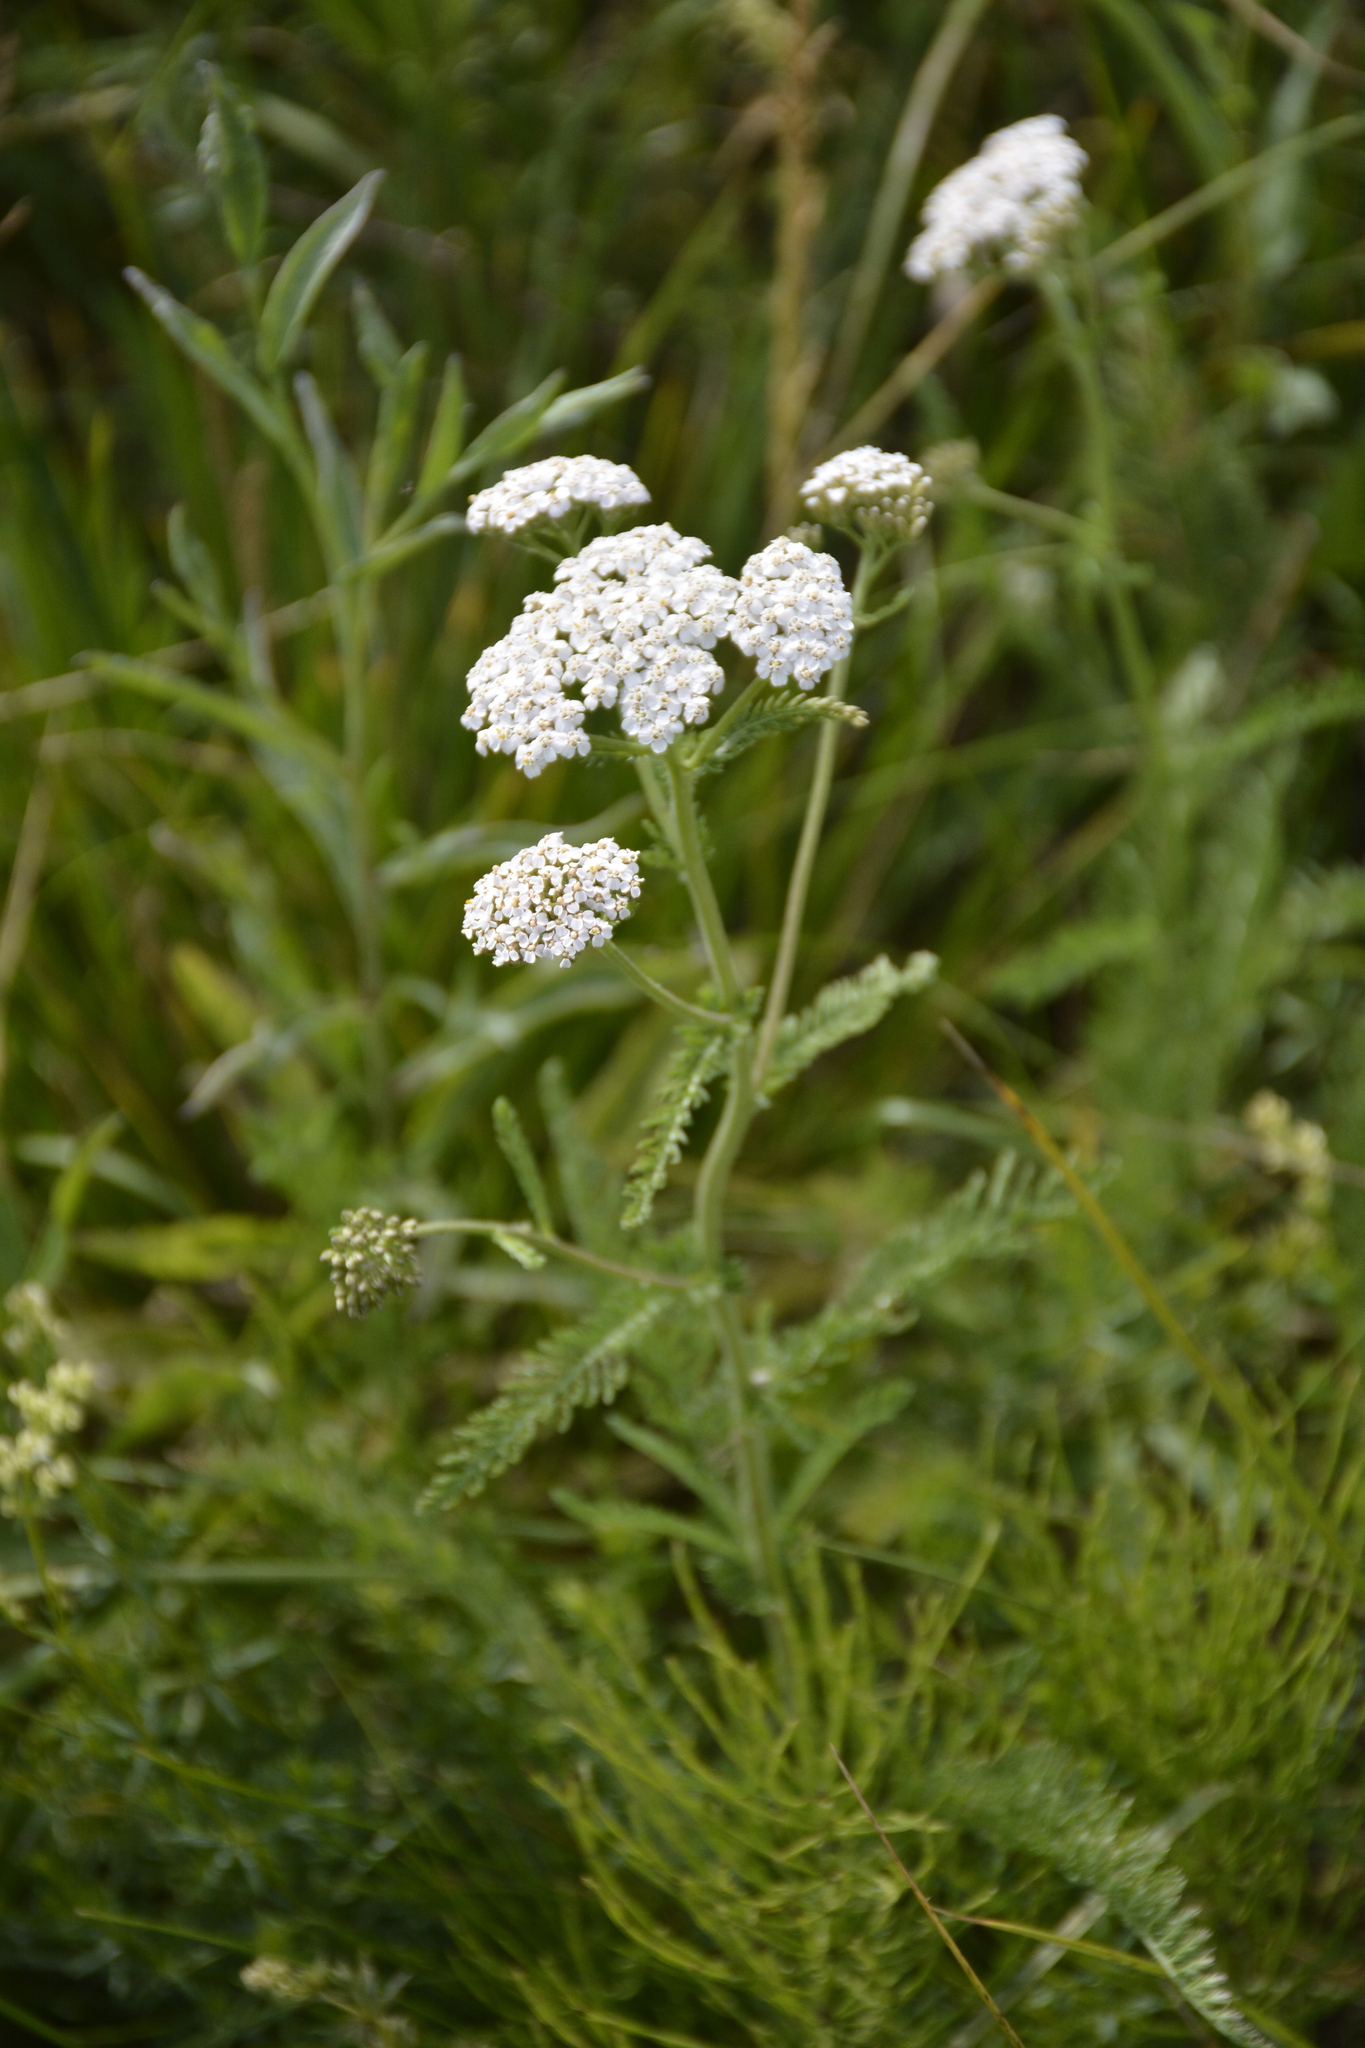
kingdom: Plantae
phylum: Tracheophyta
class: Magnoliopsida
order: Asterales
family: Asteraceae
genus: Achillea
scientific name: Achillea millefolium
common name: Yarrow
